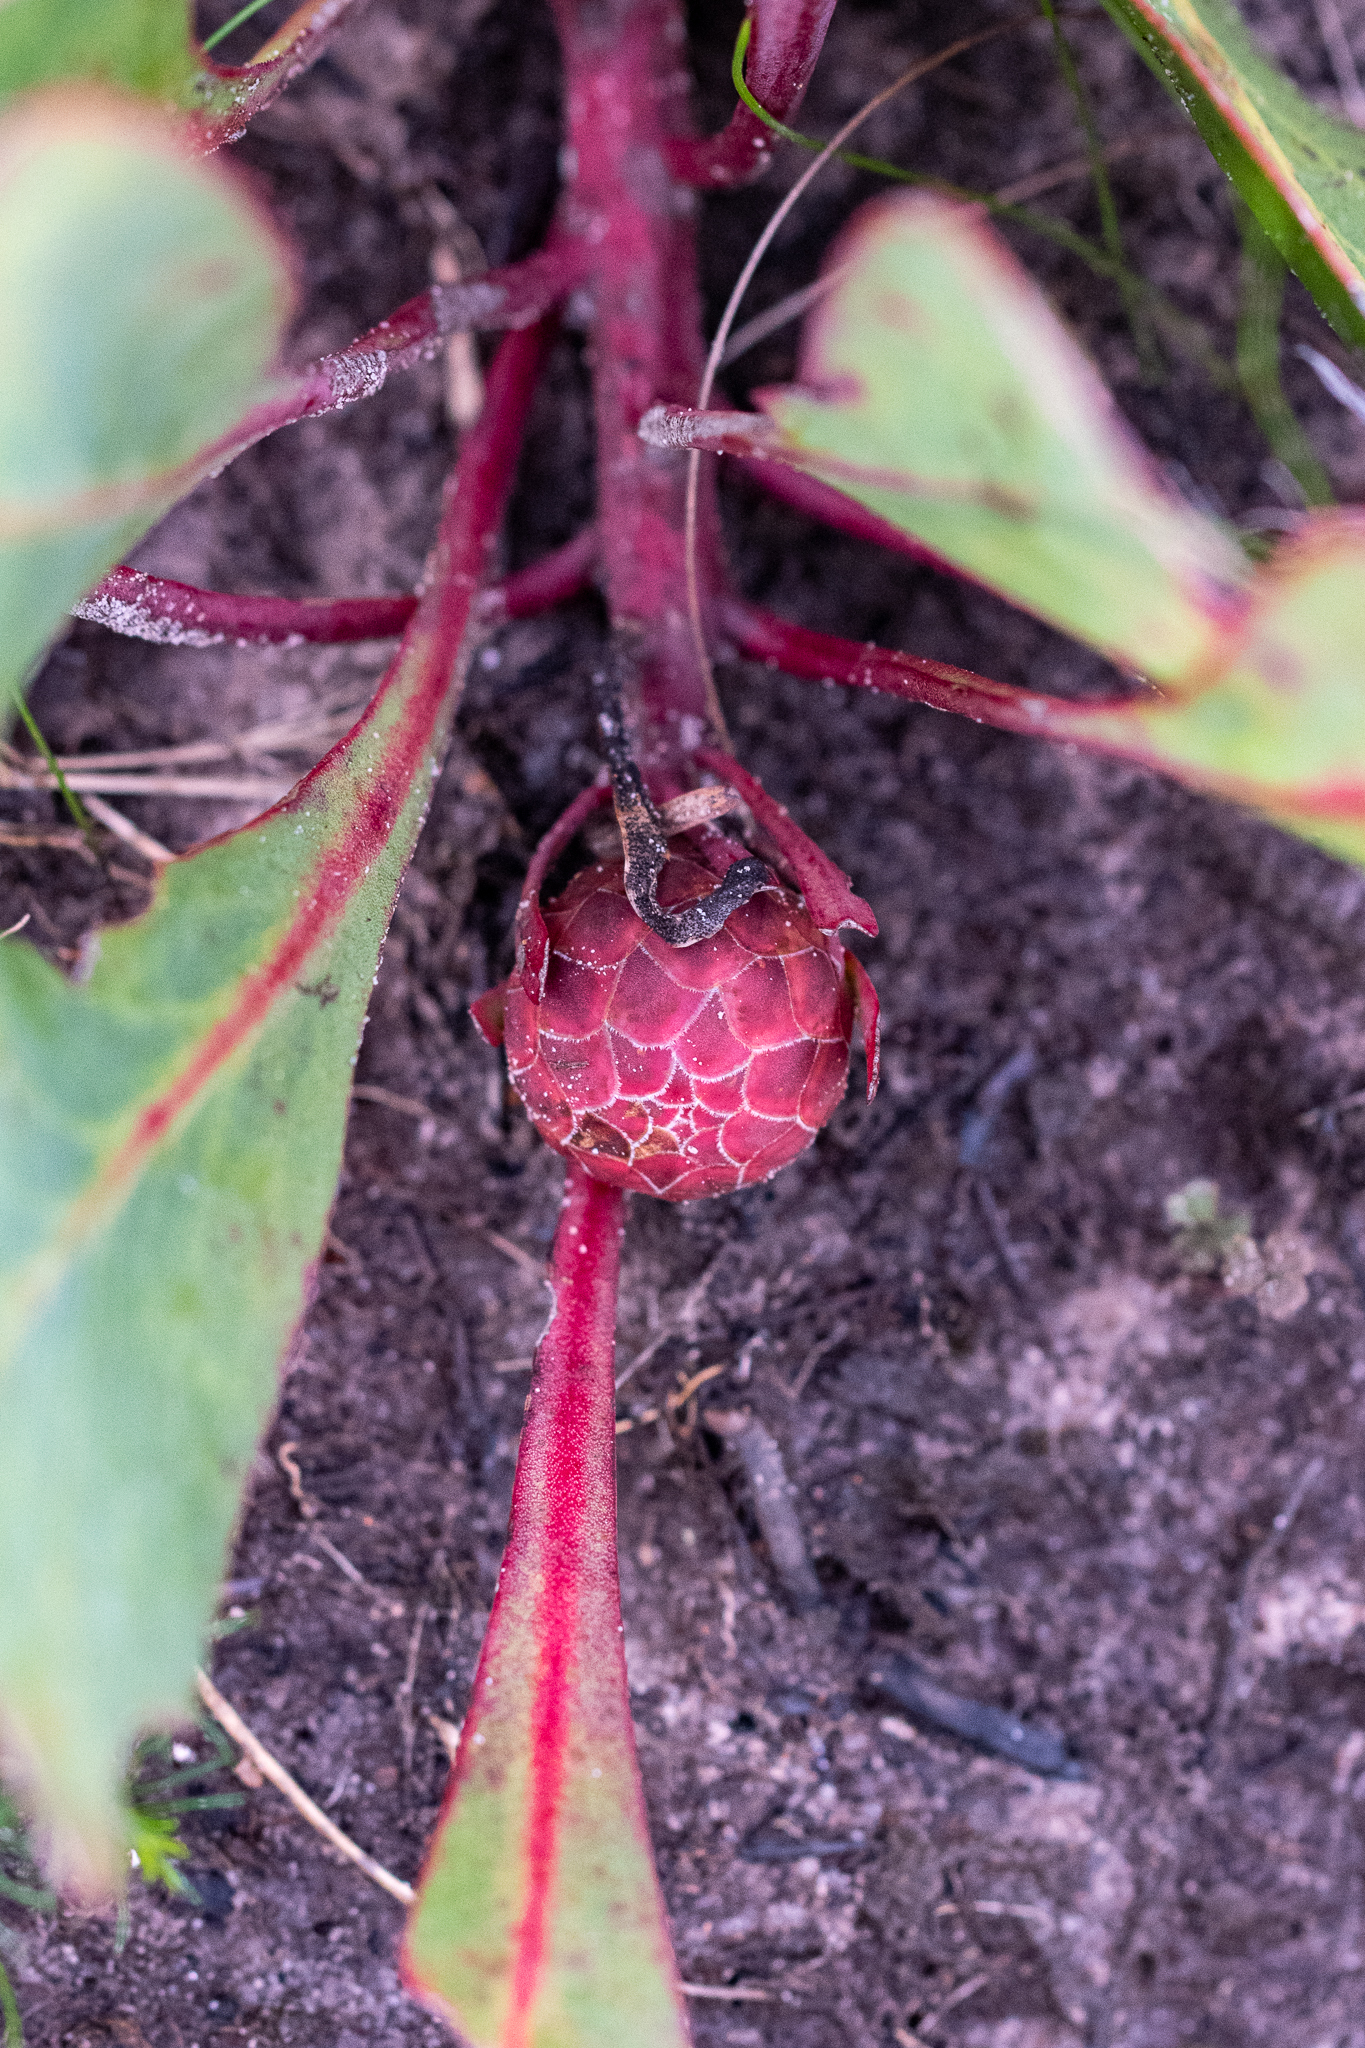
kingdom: Plantae
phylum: Tracheophyta
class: Magnoliopsida
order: Proteales
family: Proteaceae
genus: Protea
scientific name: Protea acaulos
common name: Common ground sugarbush
